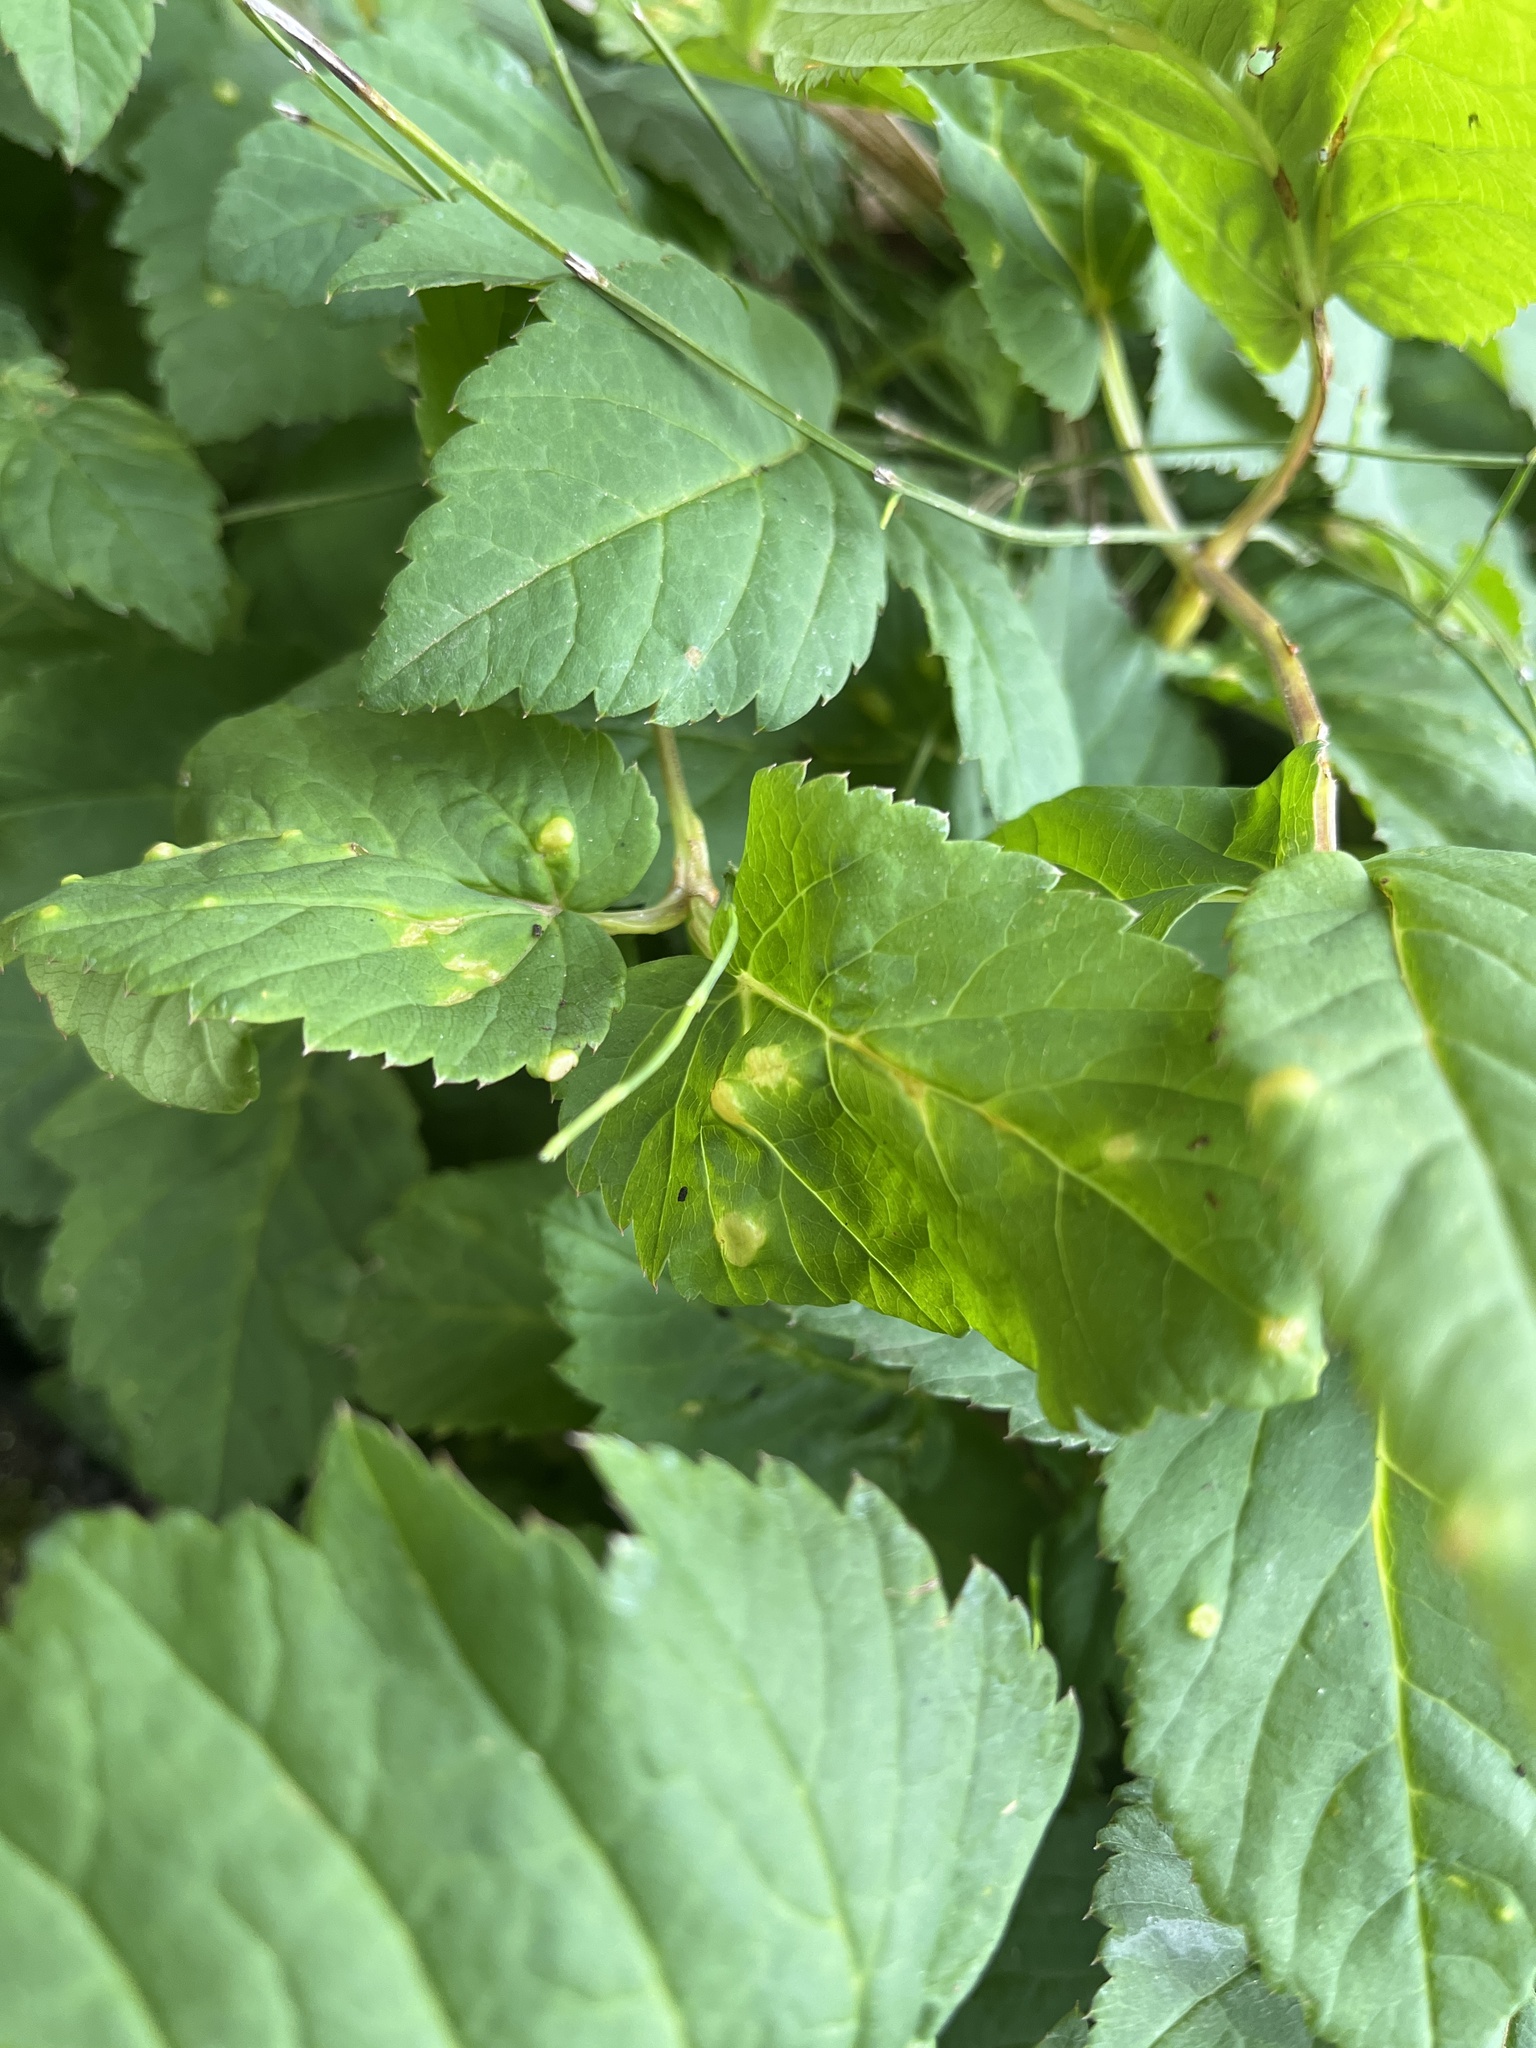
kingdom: Fungi
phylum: Ascomycota
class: Taphrinomycetes
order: Taphrinales
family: Taphrinaceae
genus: Protomyces
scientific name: Protomyces macrosporus
